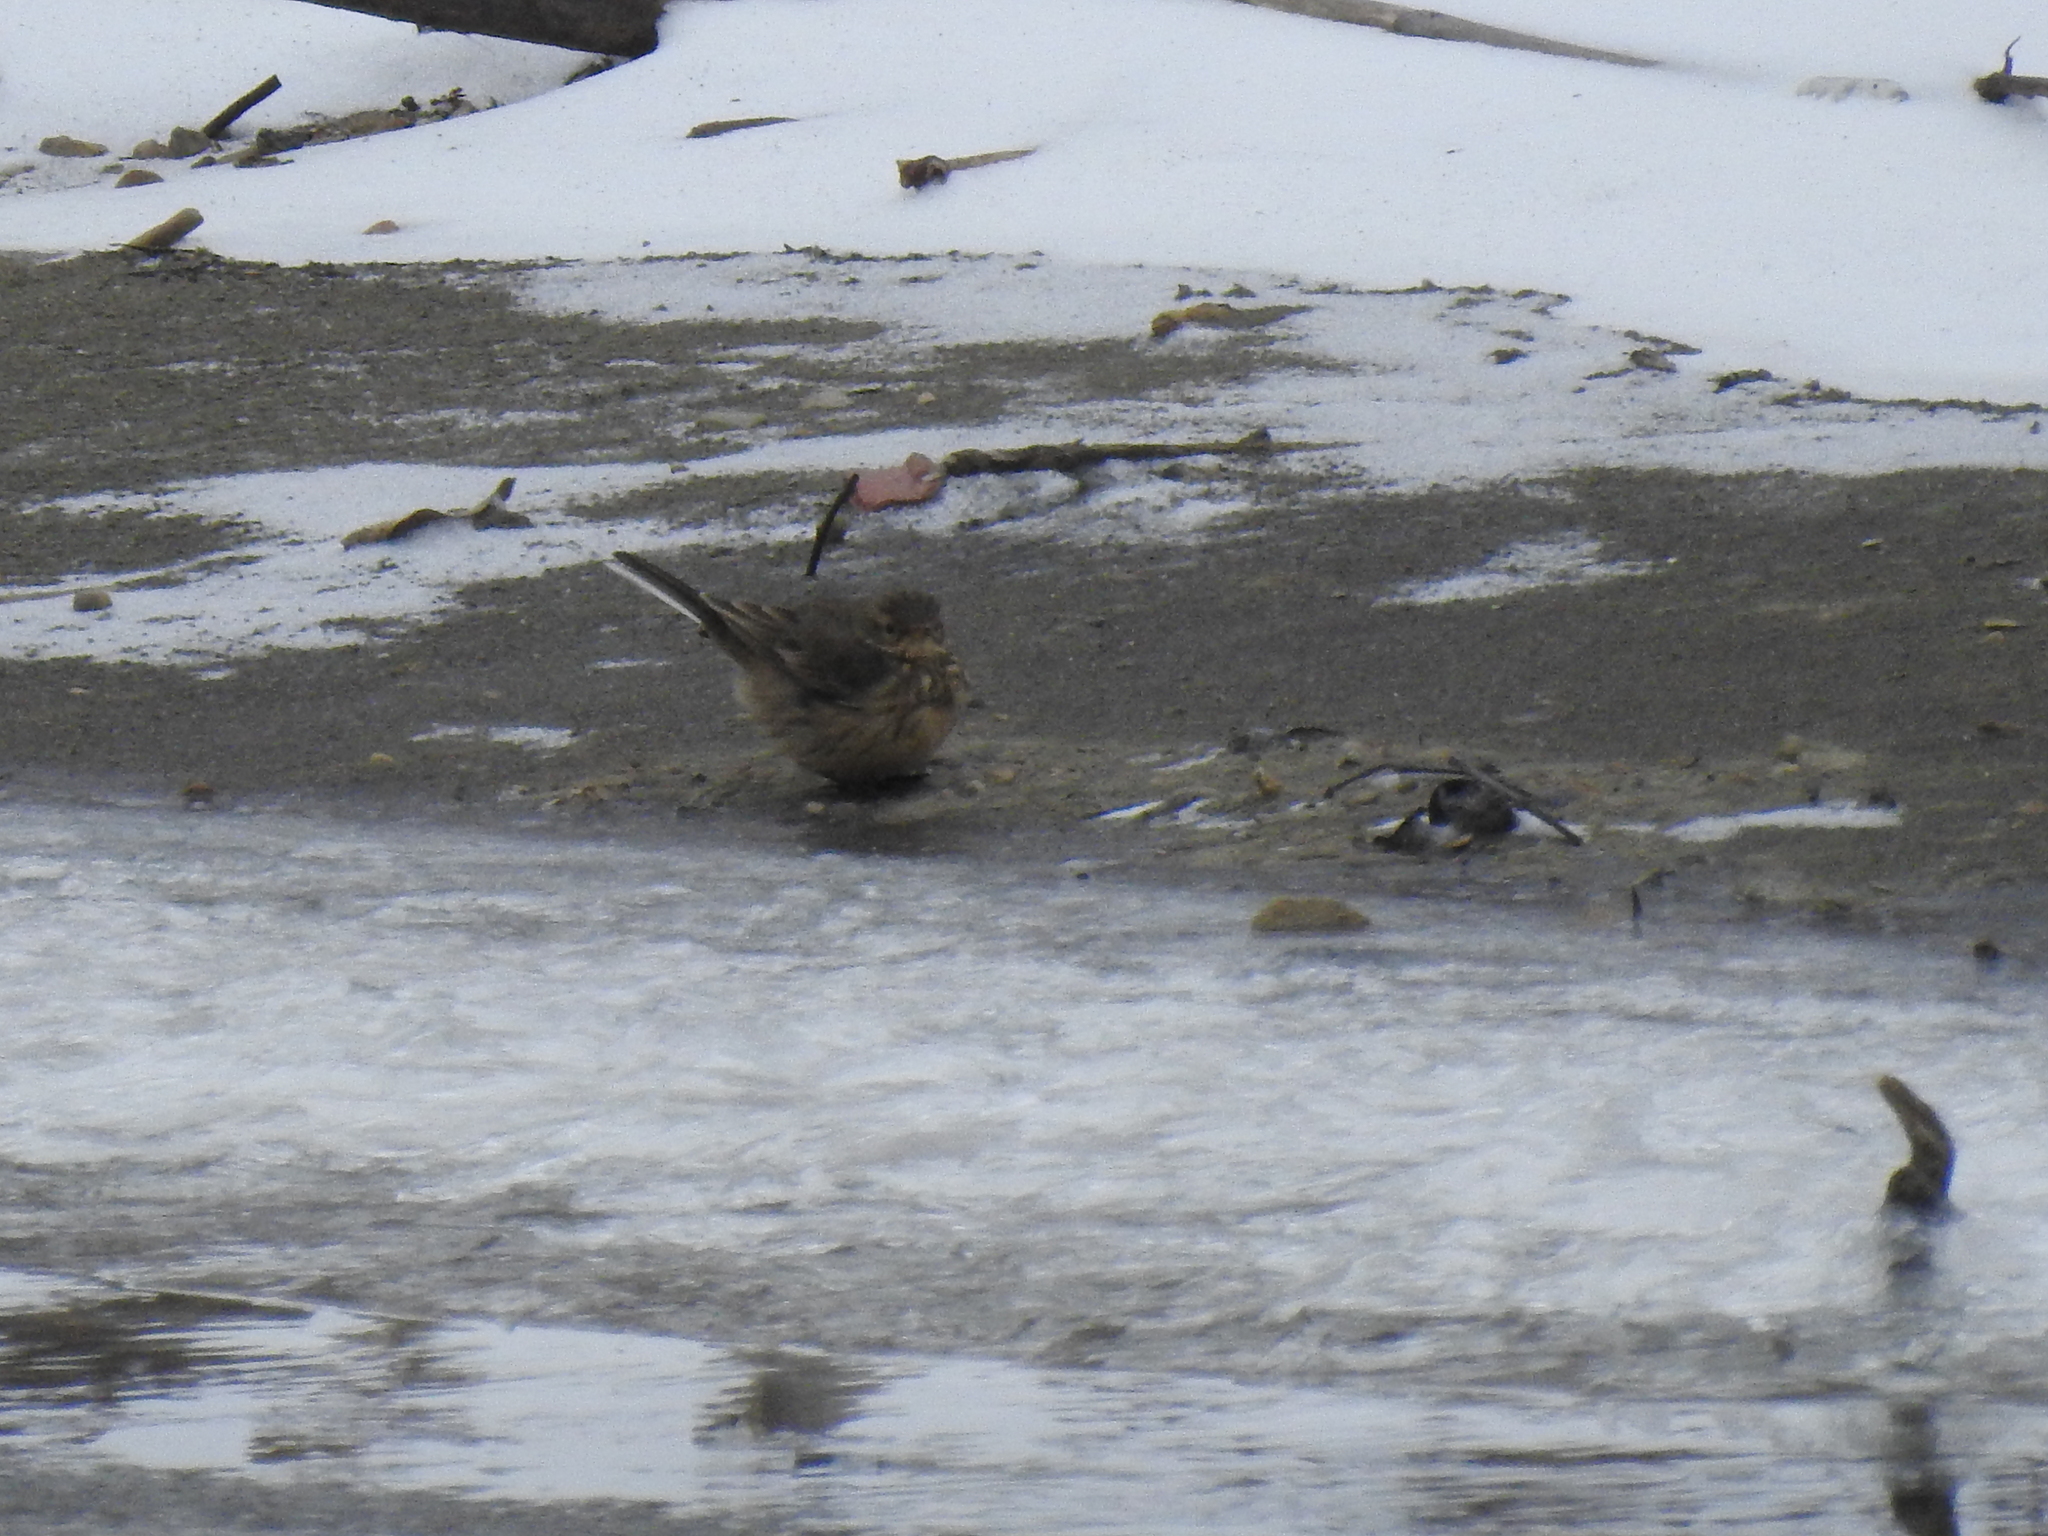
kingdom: Animalia
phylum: Chordata
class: Aves
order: Passeriformes
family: Motacillidae
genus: Anthus
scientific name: Anthus rubescens
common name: Buff-bellied pipit
